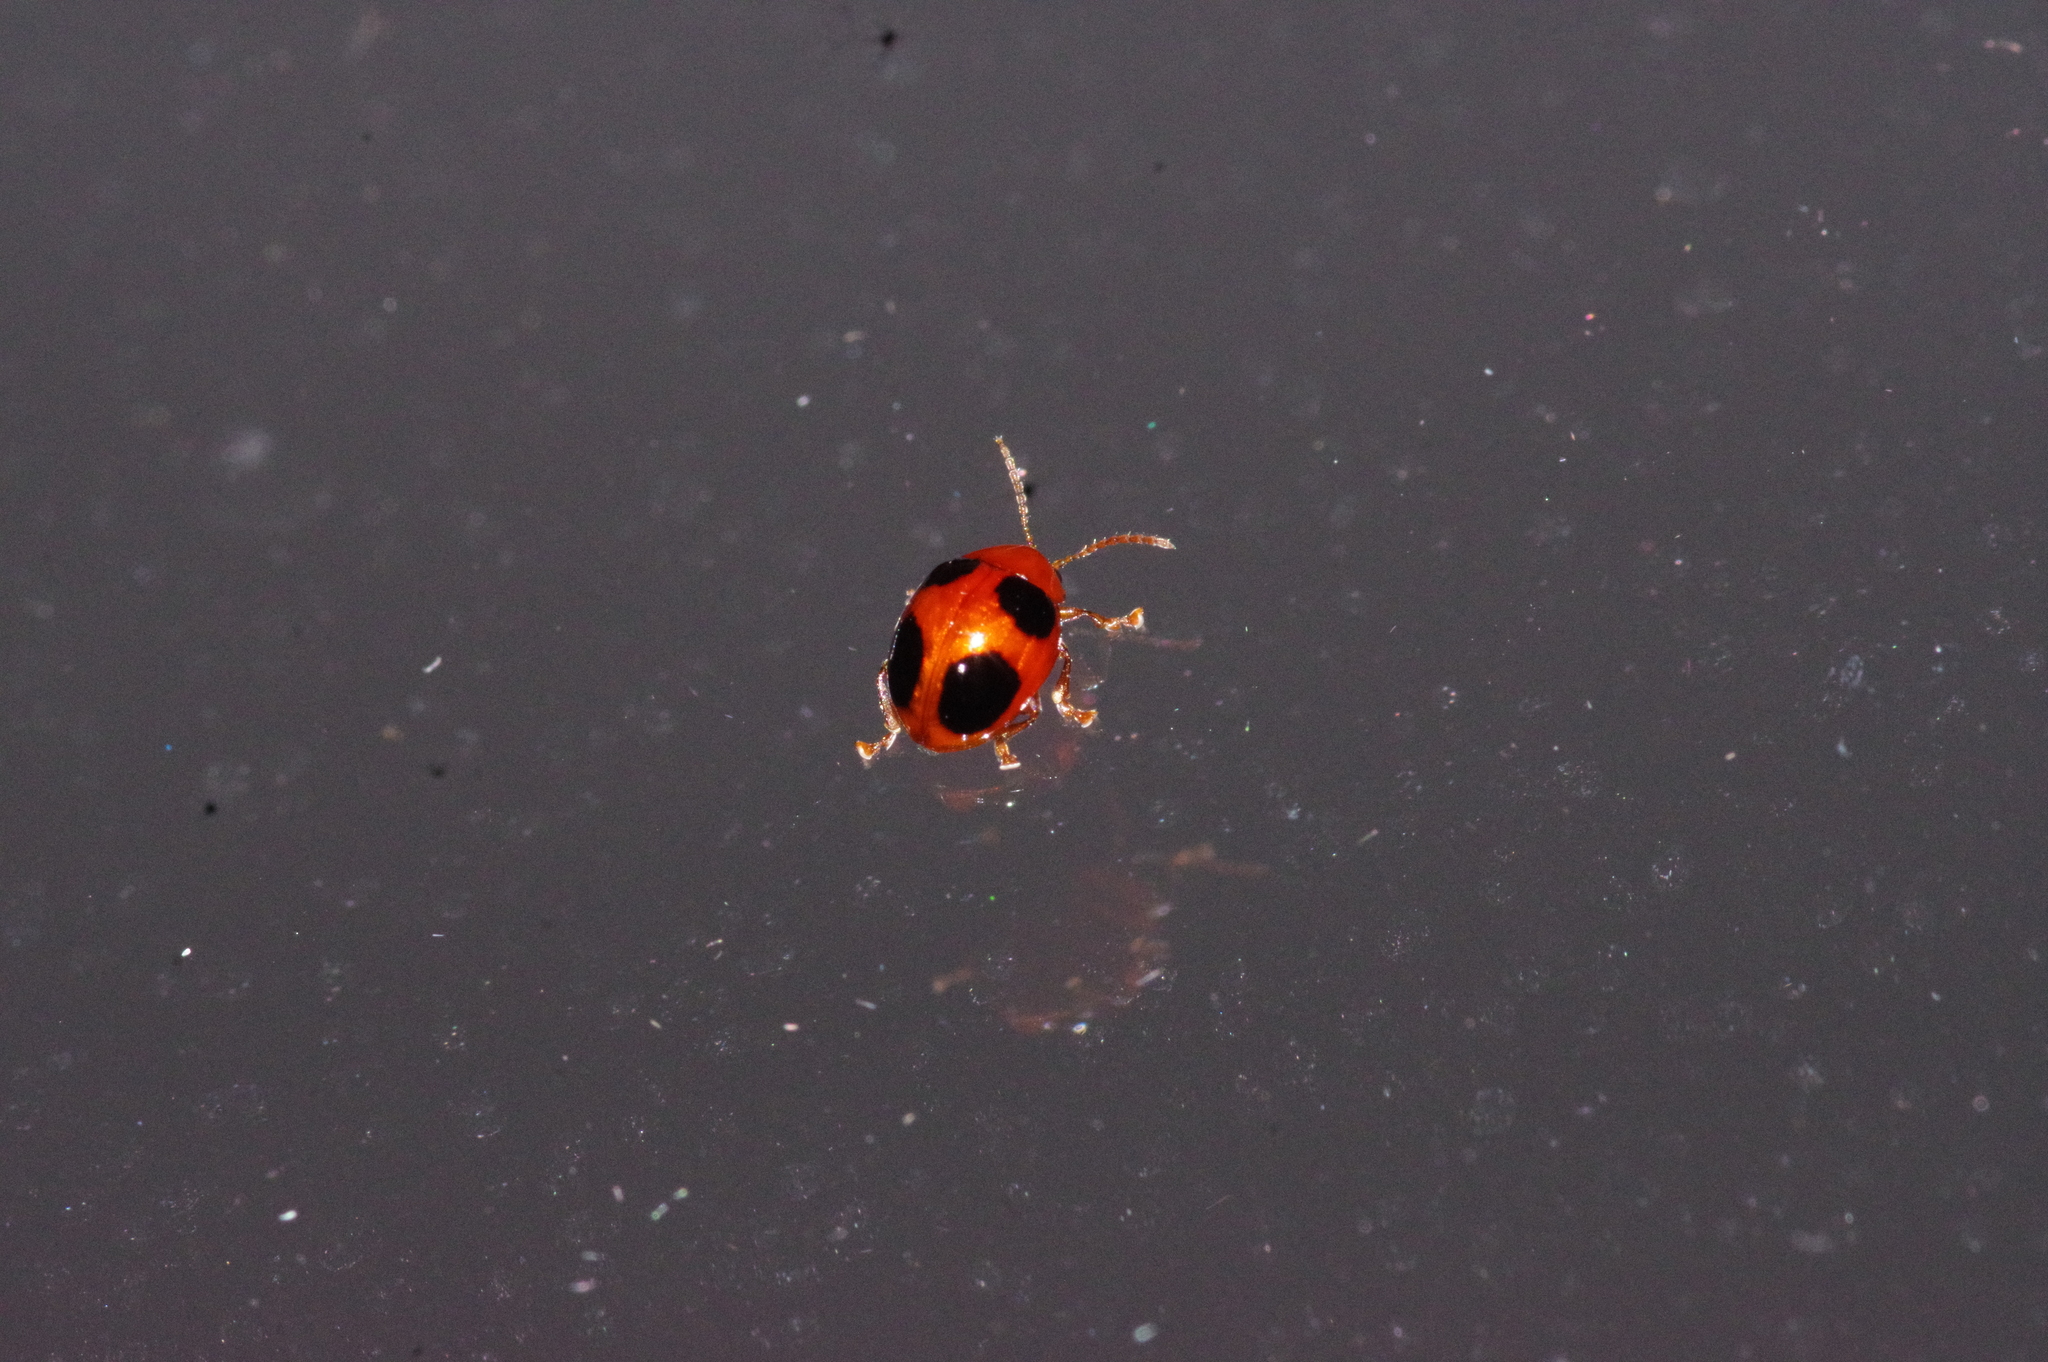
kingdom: Animalia
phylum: Arthropoda
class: Insecta
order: Coleoptera
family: Chrysomelidae
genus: Sphaeroderma
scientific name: Sphaeroderma
